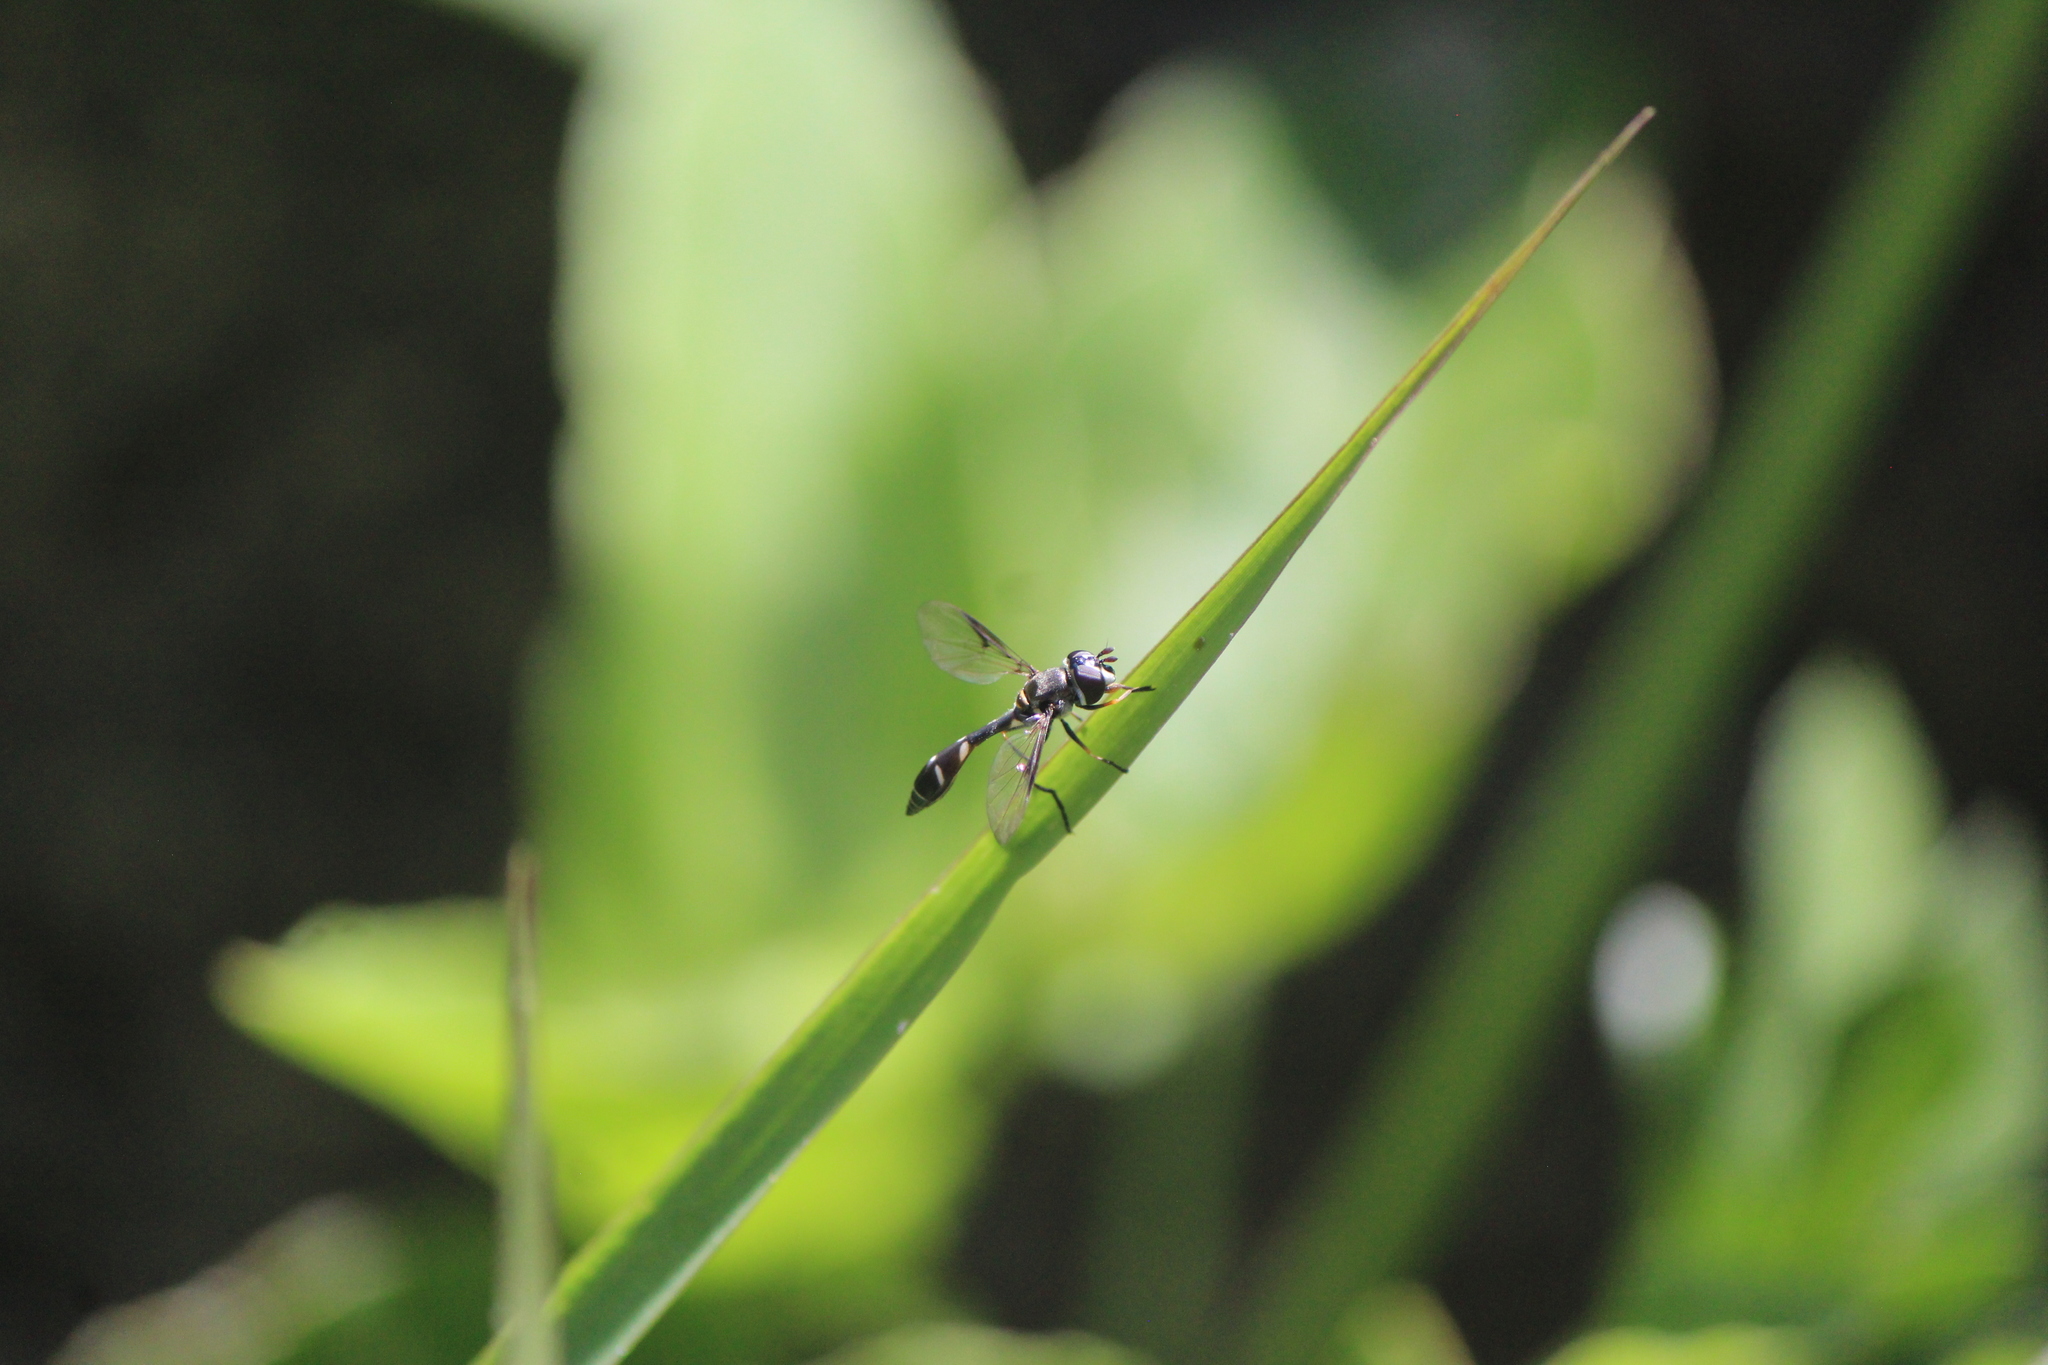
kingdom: Animalia
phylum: Arthropoda
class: Insecta
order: Diptera
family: Syrphidae
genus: Dioprosopa
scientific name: Dioprosopa clavatus
